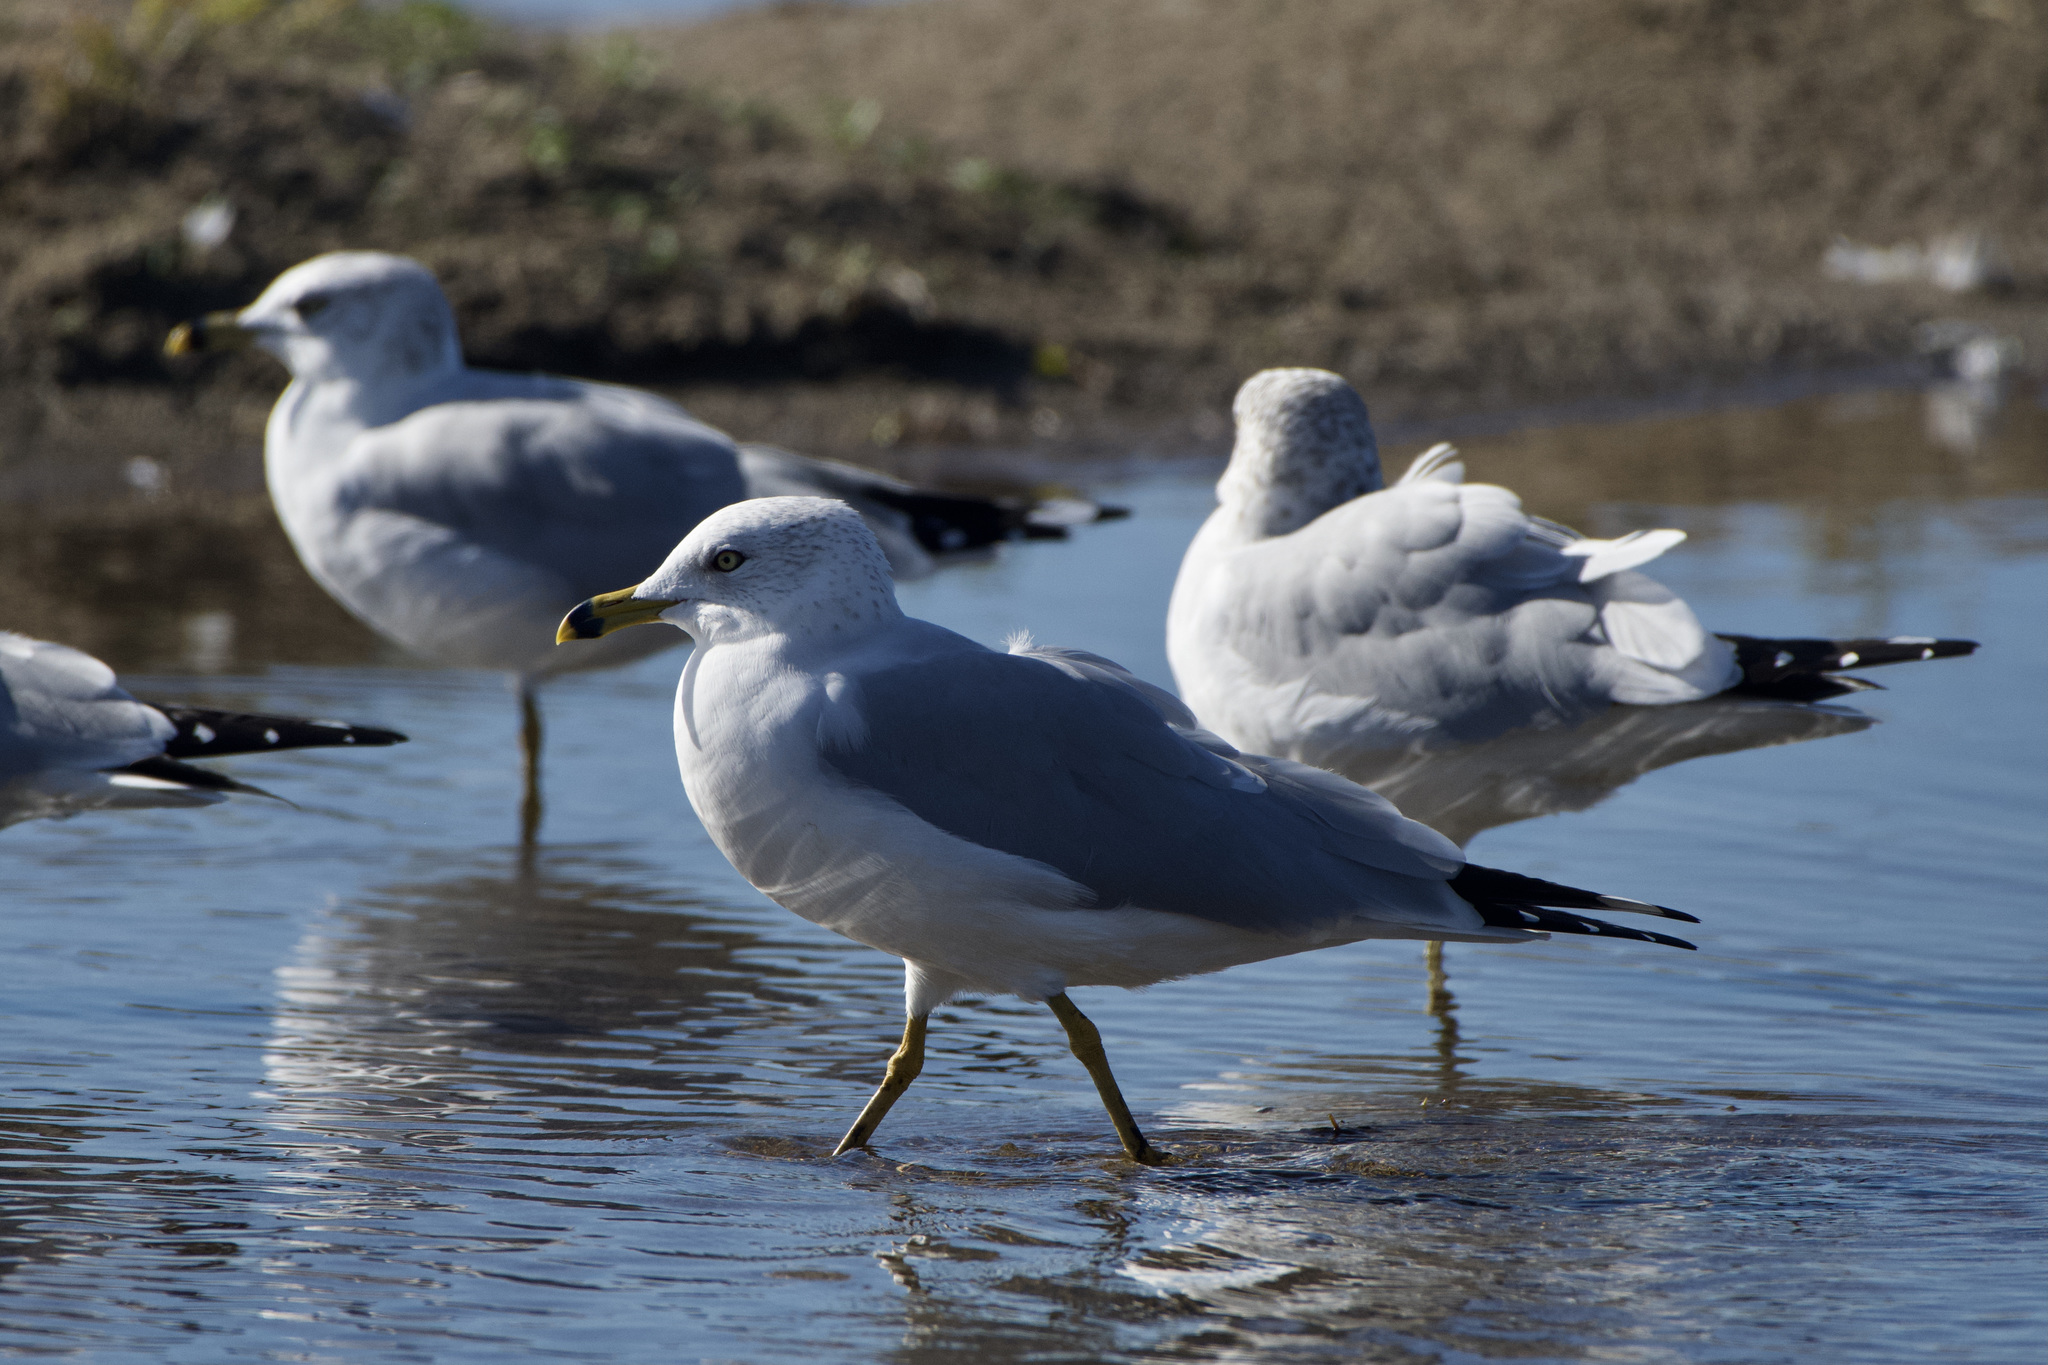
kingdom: Animalia
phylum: Chordata
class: Aves
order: Charadriiformes
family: Laridae
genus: Larus
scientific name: Larus delawarensis
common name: Ring-billed gull
